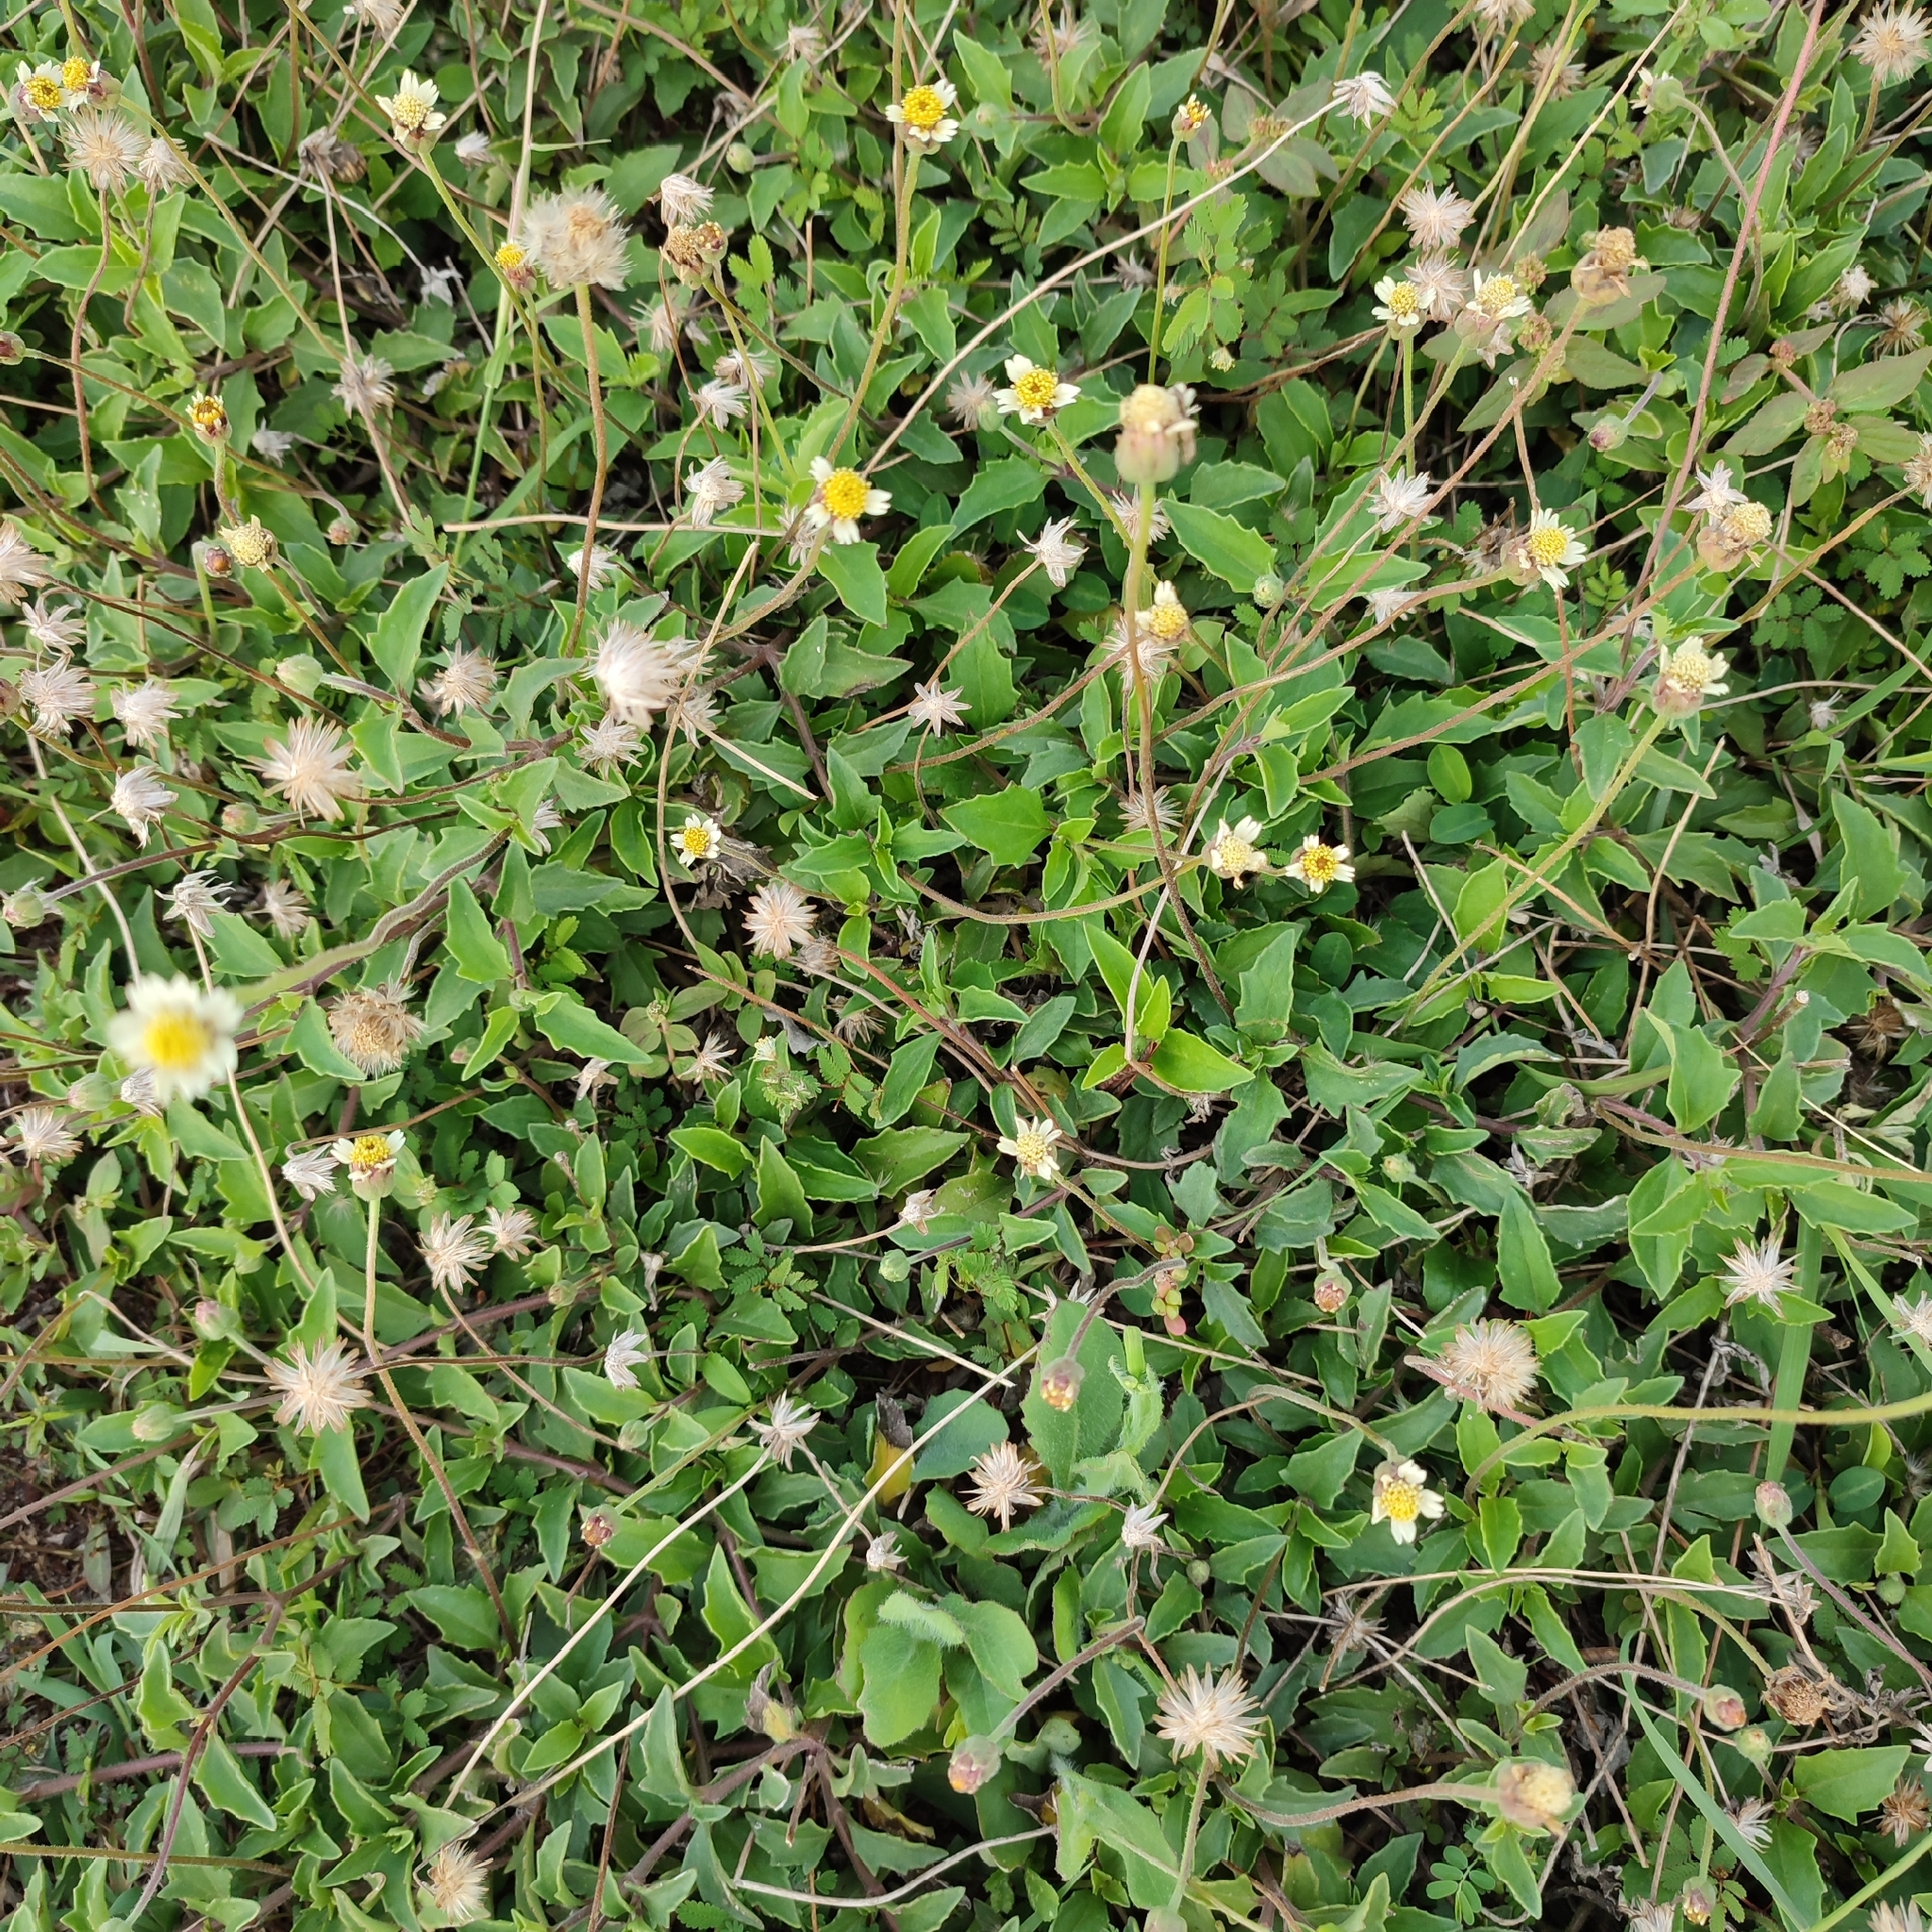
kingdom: Plantae
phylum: Tracheophyta
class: Magnoliopsida
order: Asterales
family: Asteraceae
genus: Tridax
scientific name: Tridax procumbens
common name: Coatbuttons
